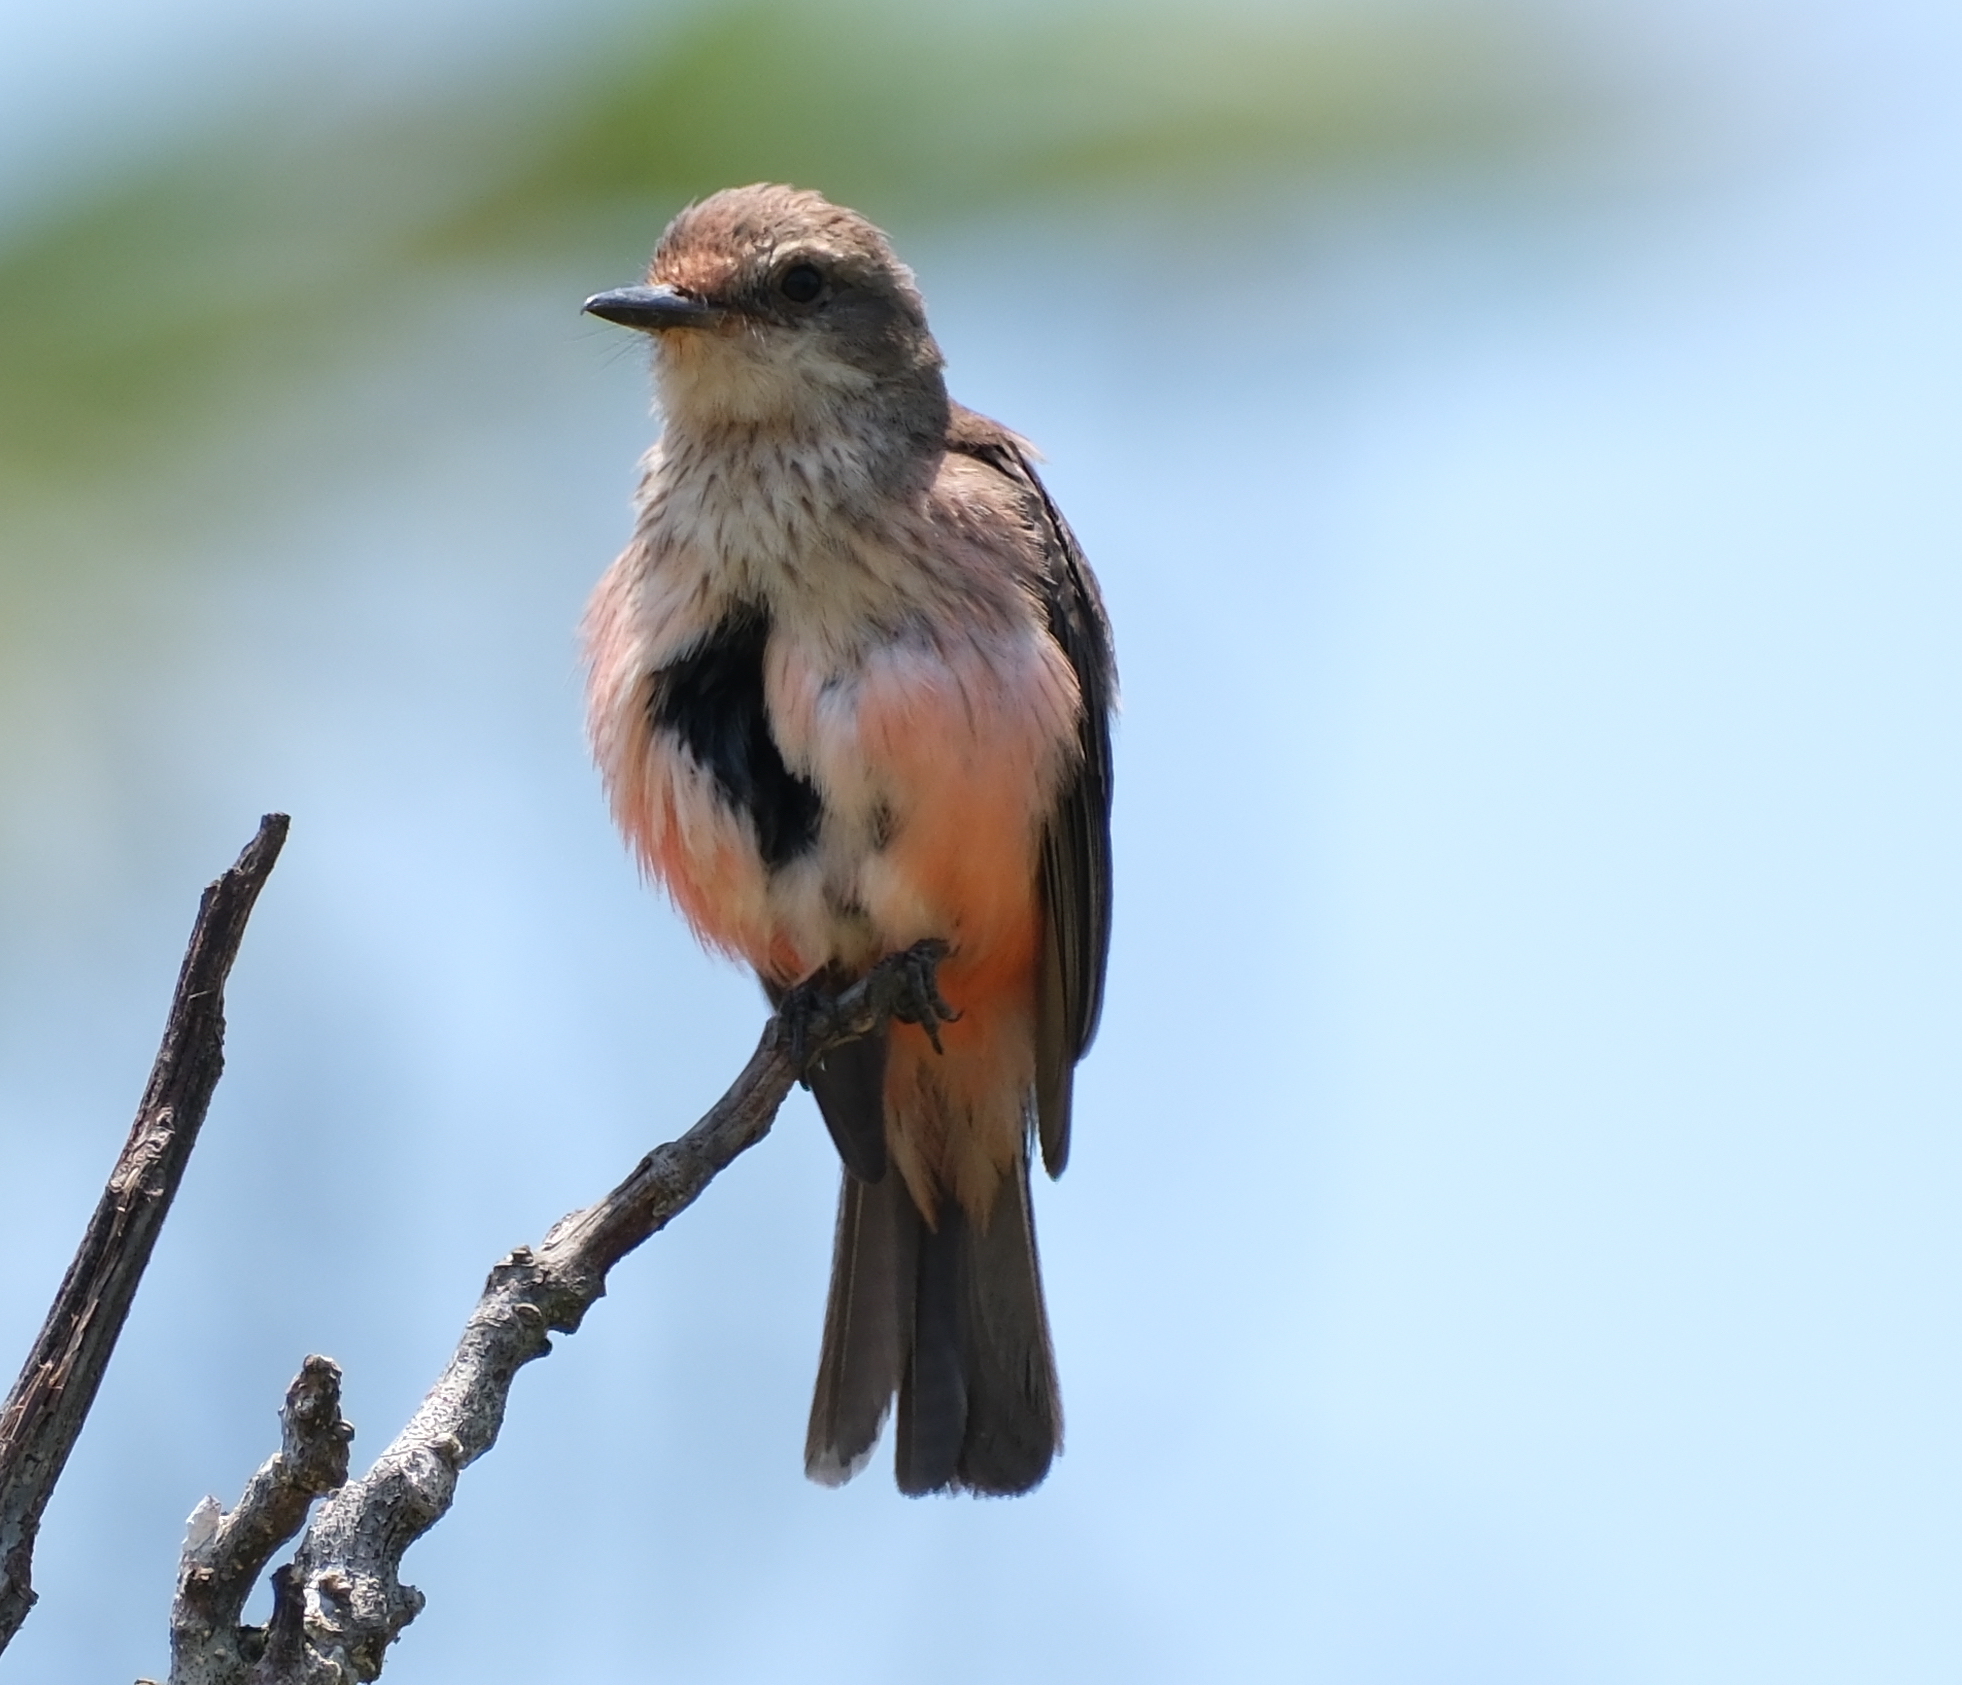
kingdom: Animalia
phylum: Chordata
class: Aves
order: Passeriformes
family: Tyrannidae
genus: Pyrocephalus
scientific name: Pyrocephalus rubinus
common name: Vermilion flycatcher
